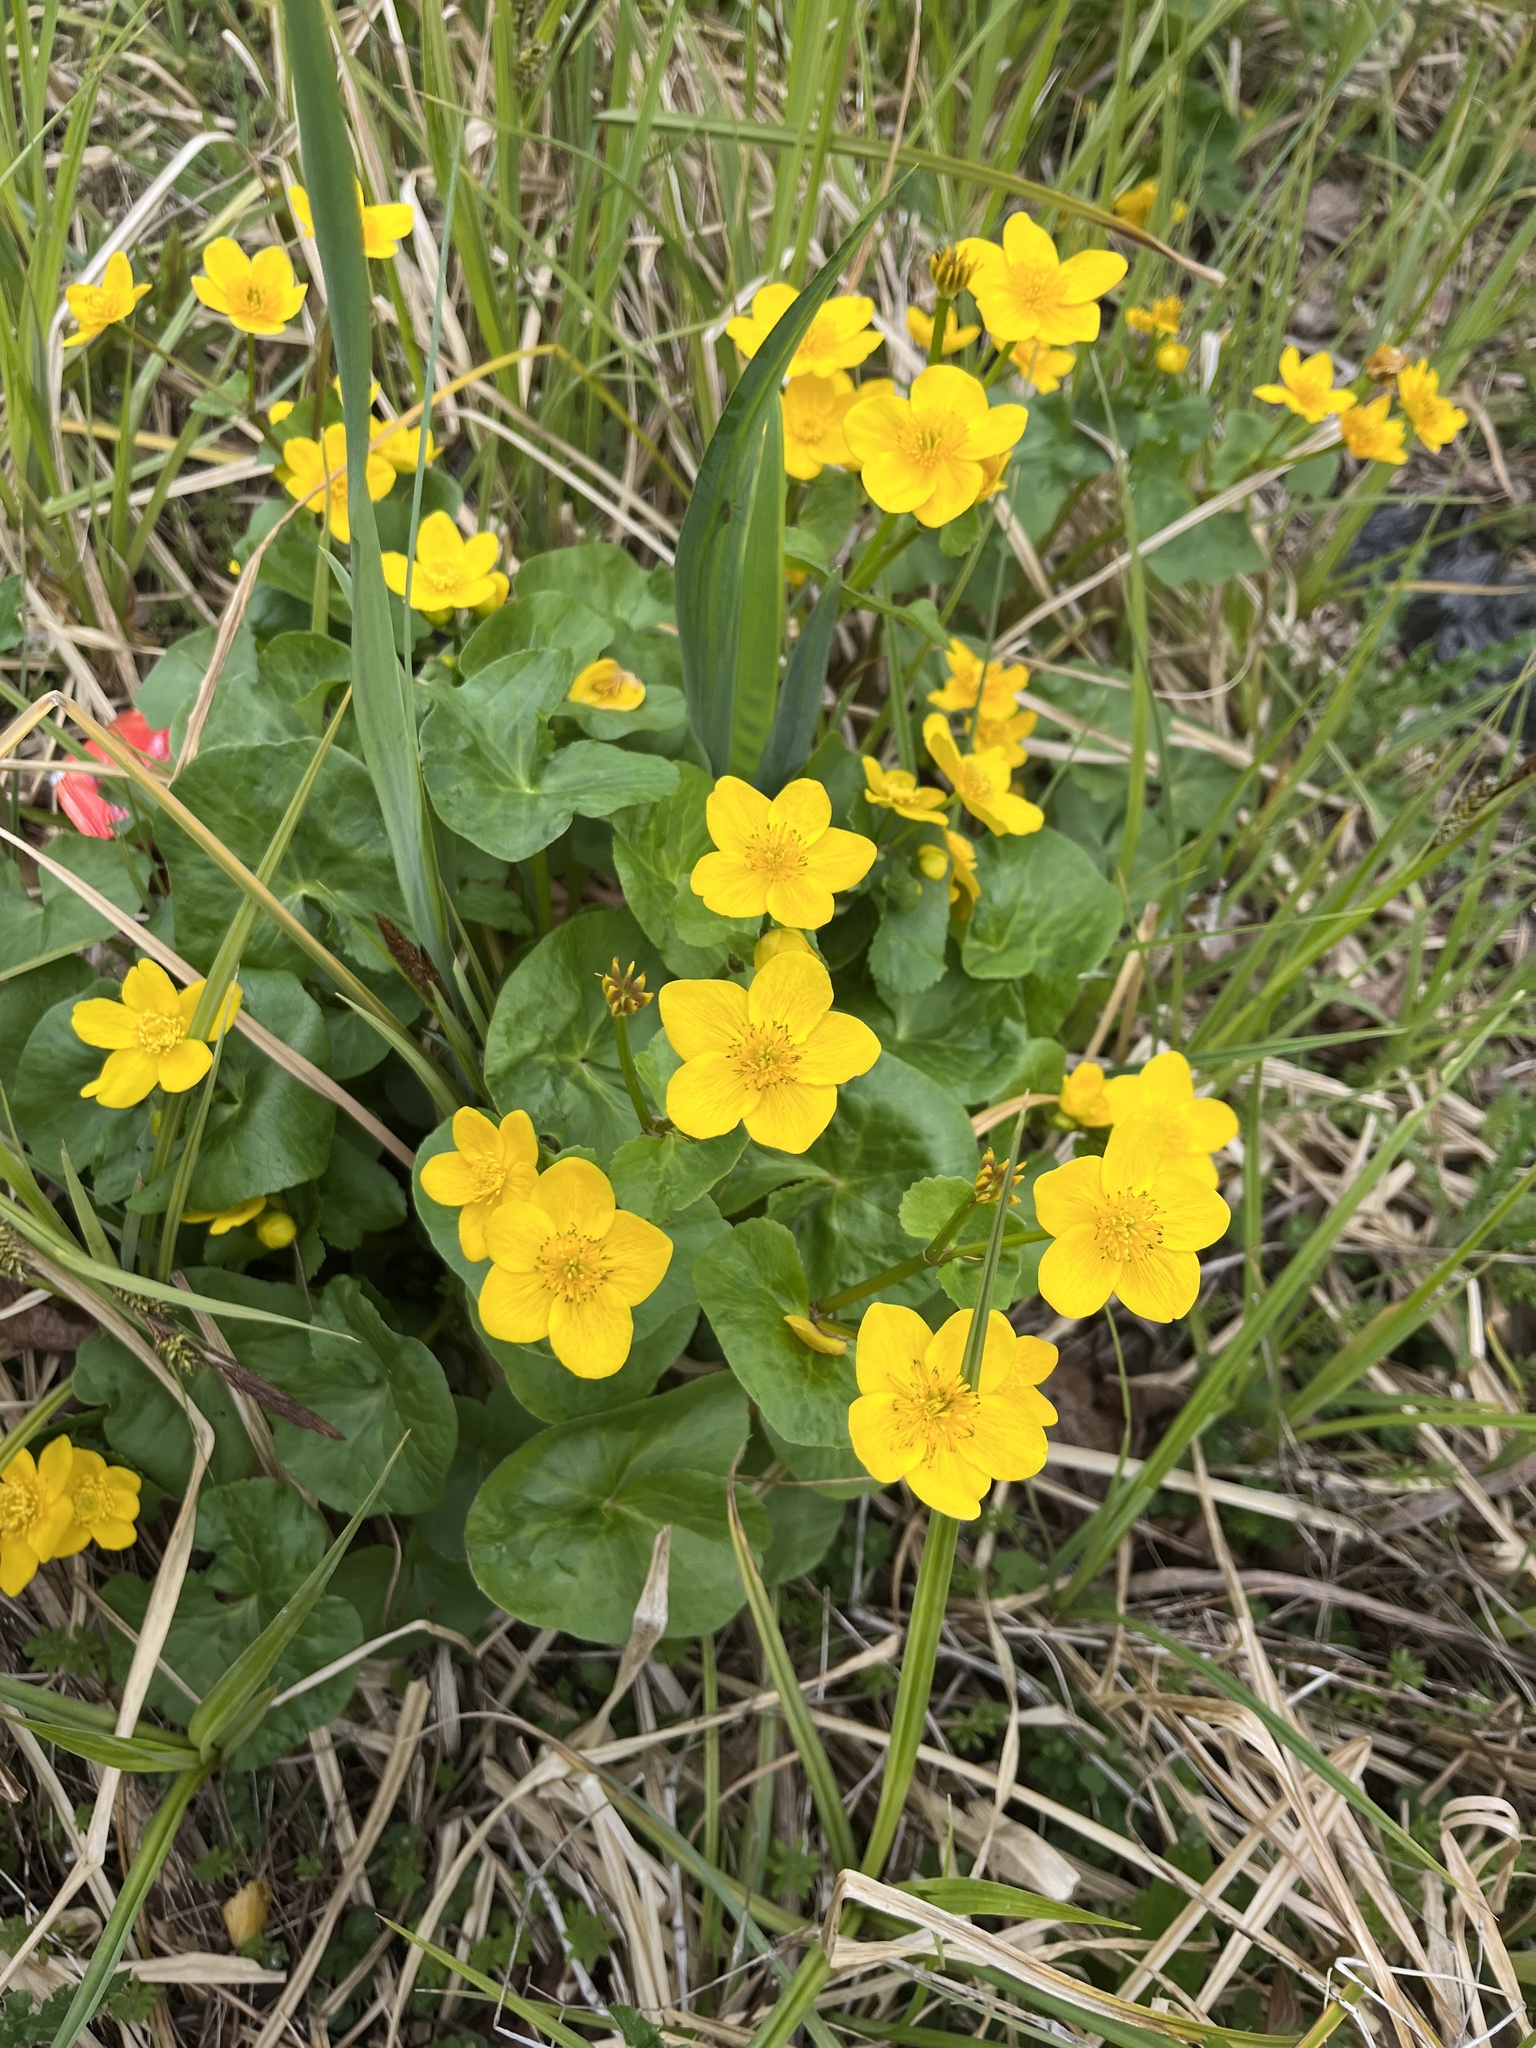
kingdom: Plantae
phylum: Tracheophyta
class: Magnoliopsida
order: Ranunculales
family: Ranunculaceae
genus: Caltha
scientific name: Caltha palustris
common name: Marsh marigold
